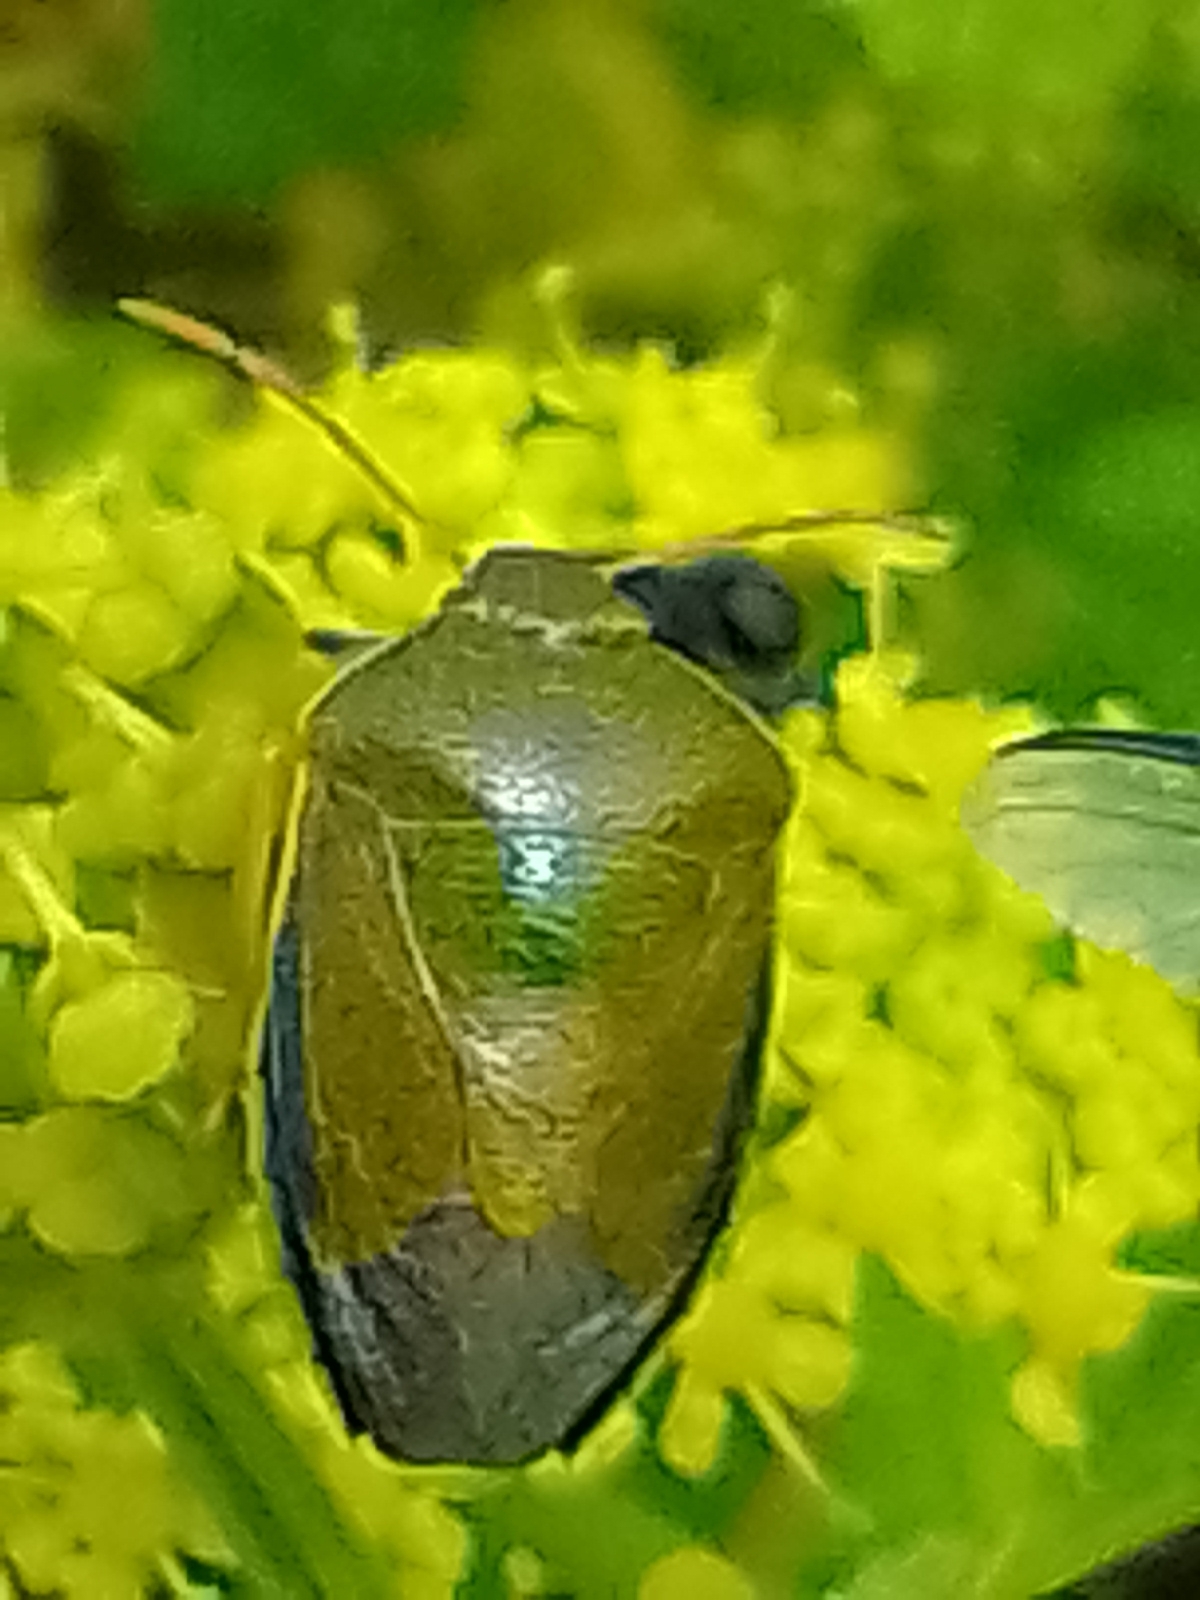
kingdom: Animalia
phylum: Arthropoda
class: Insecta
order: Hemiptera
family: Pentatomidae
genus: Piezodorus
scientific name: Piezodorus lituratus
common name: Stink bug
